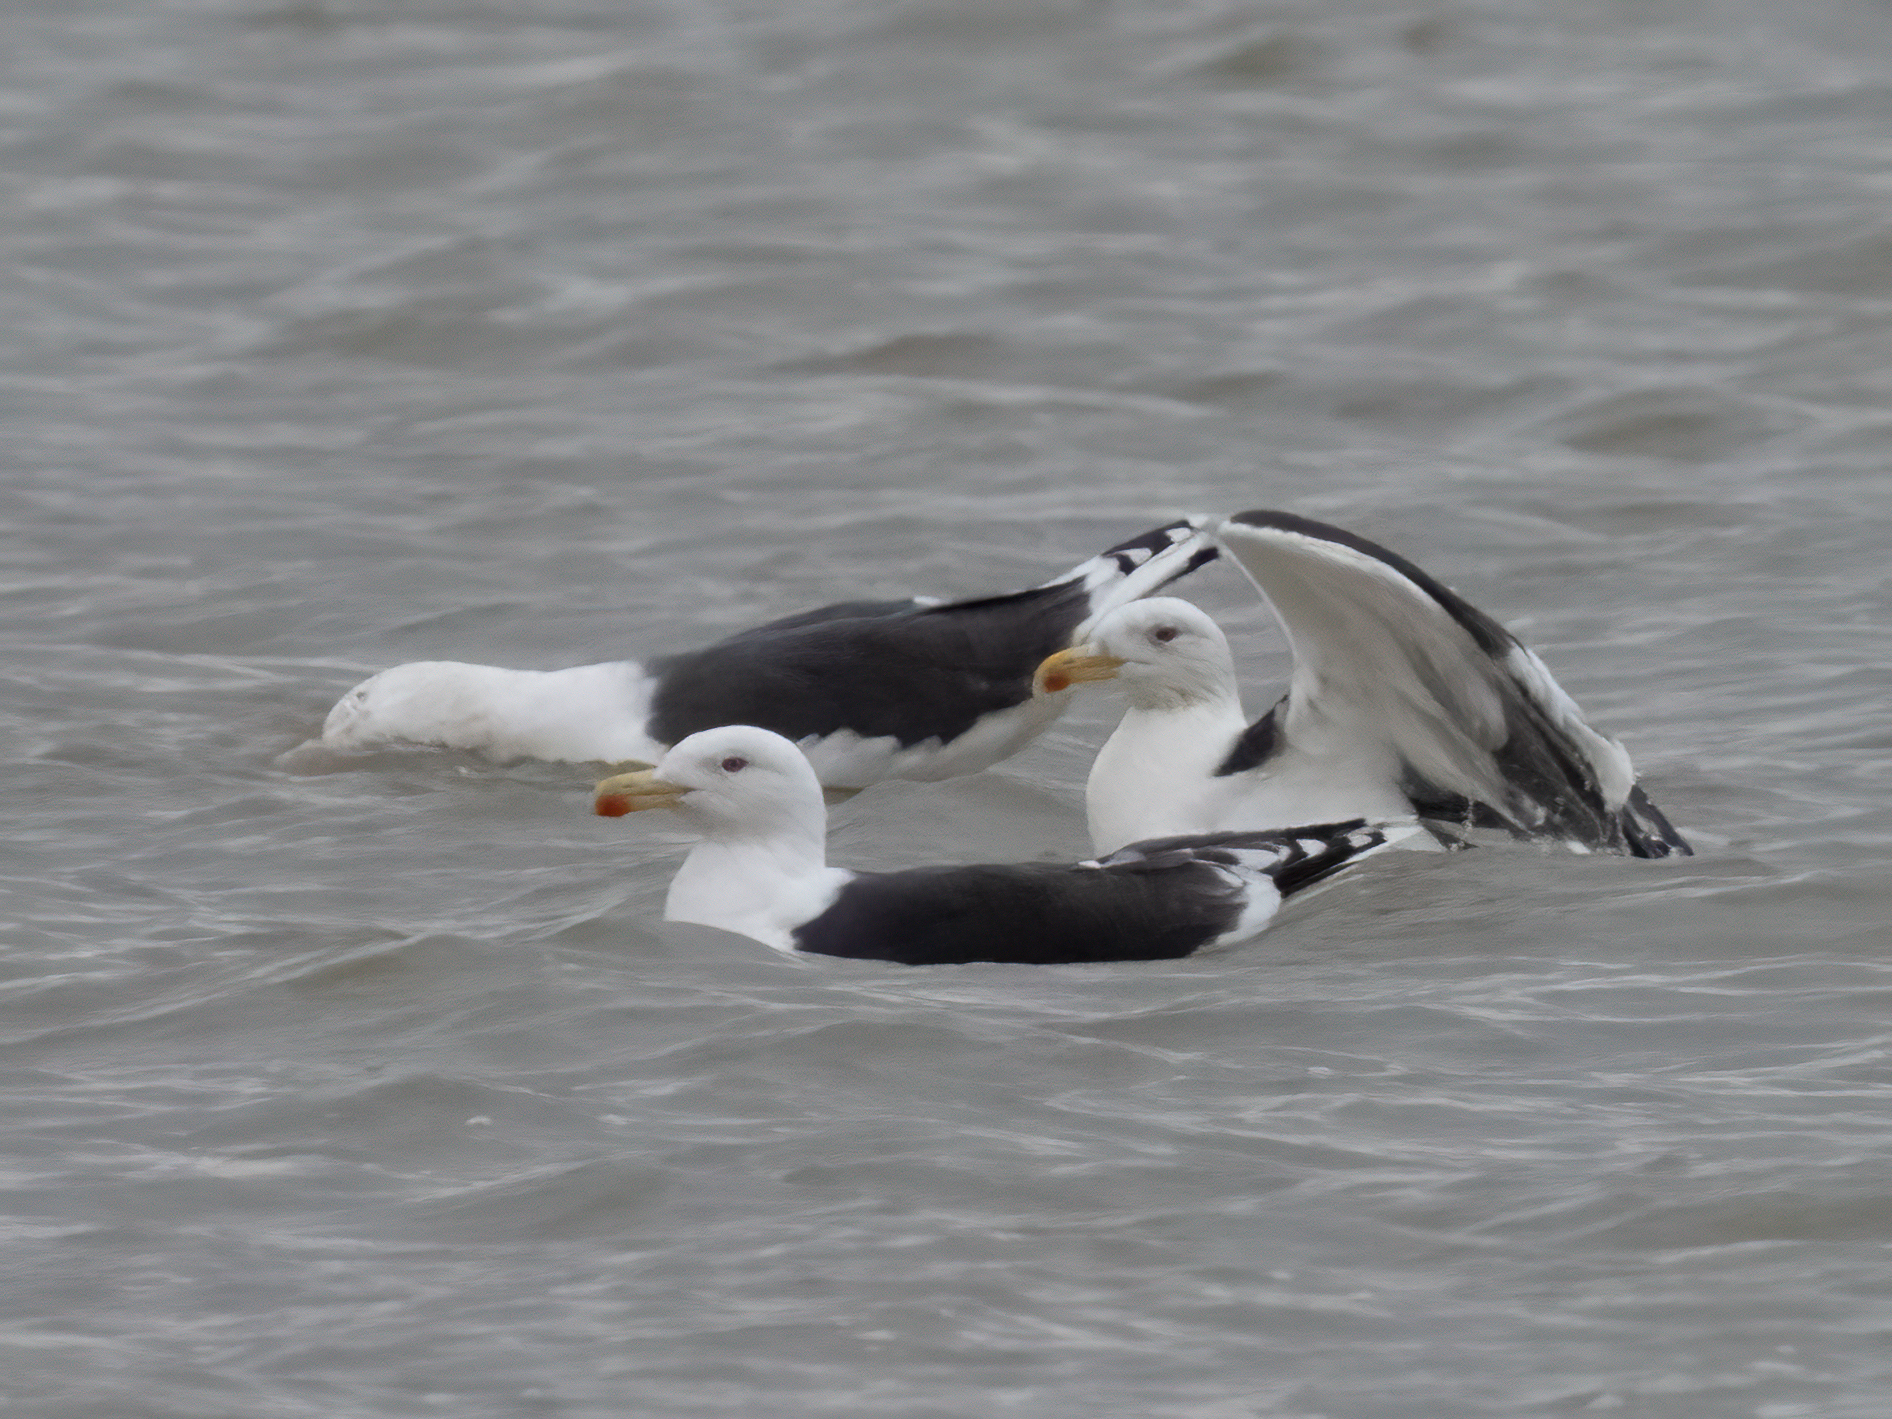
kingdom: Animalia
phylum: Chordata
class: Aves
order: Charadriiformes
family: Laridae
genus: Larus
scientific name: Larus marinus
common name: Great black-backed gull
